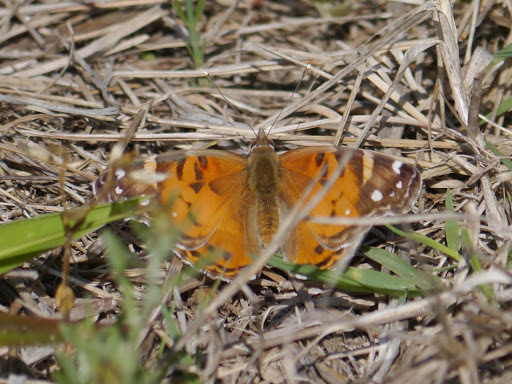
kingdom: Animalia
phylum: Arthropoda
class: Insecta
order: Lepidoptera
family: Nymphalidae
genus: Vanessa
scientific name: Vanessa virginiensis
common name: American lady
